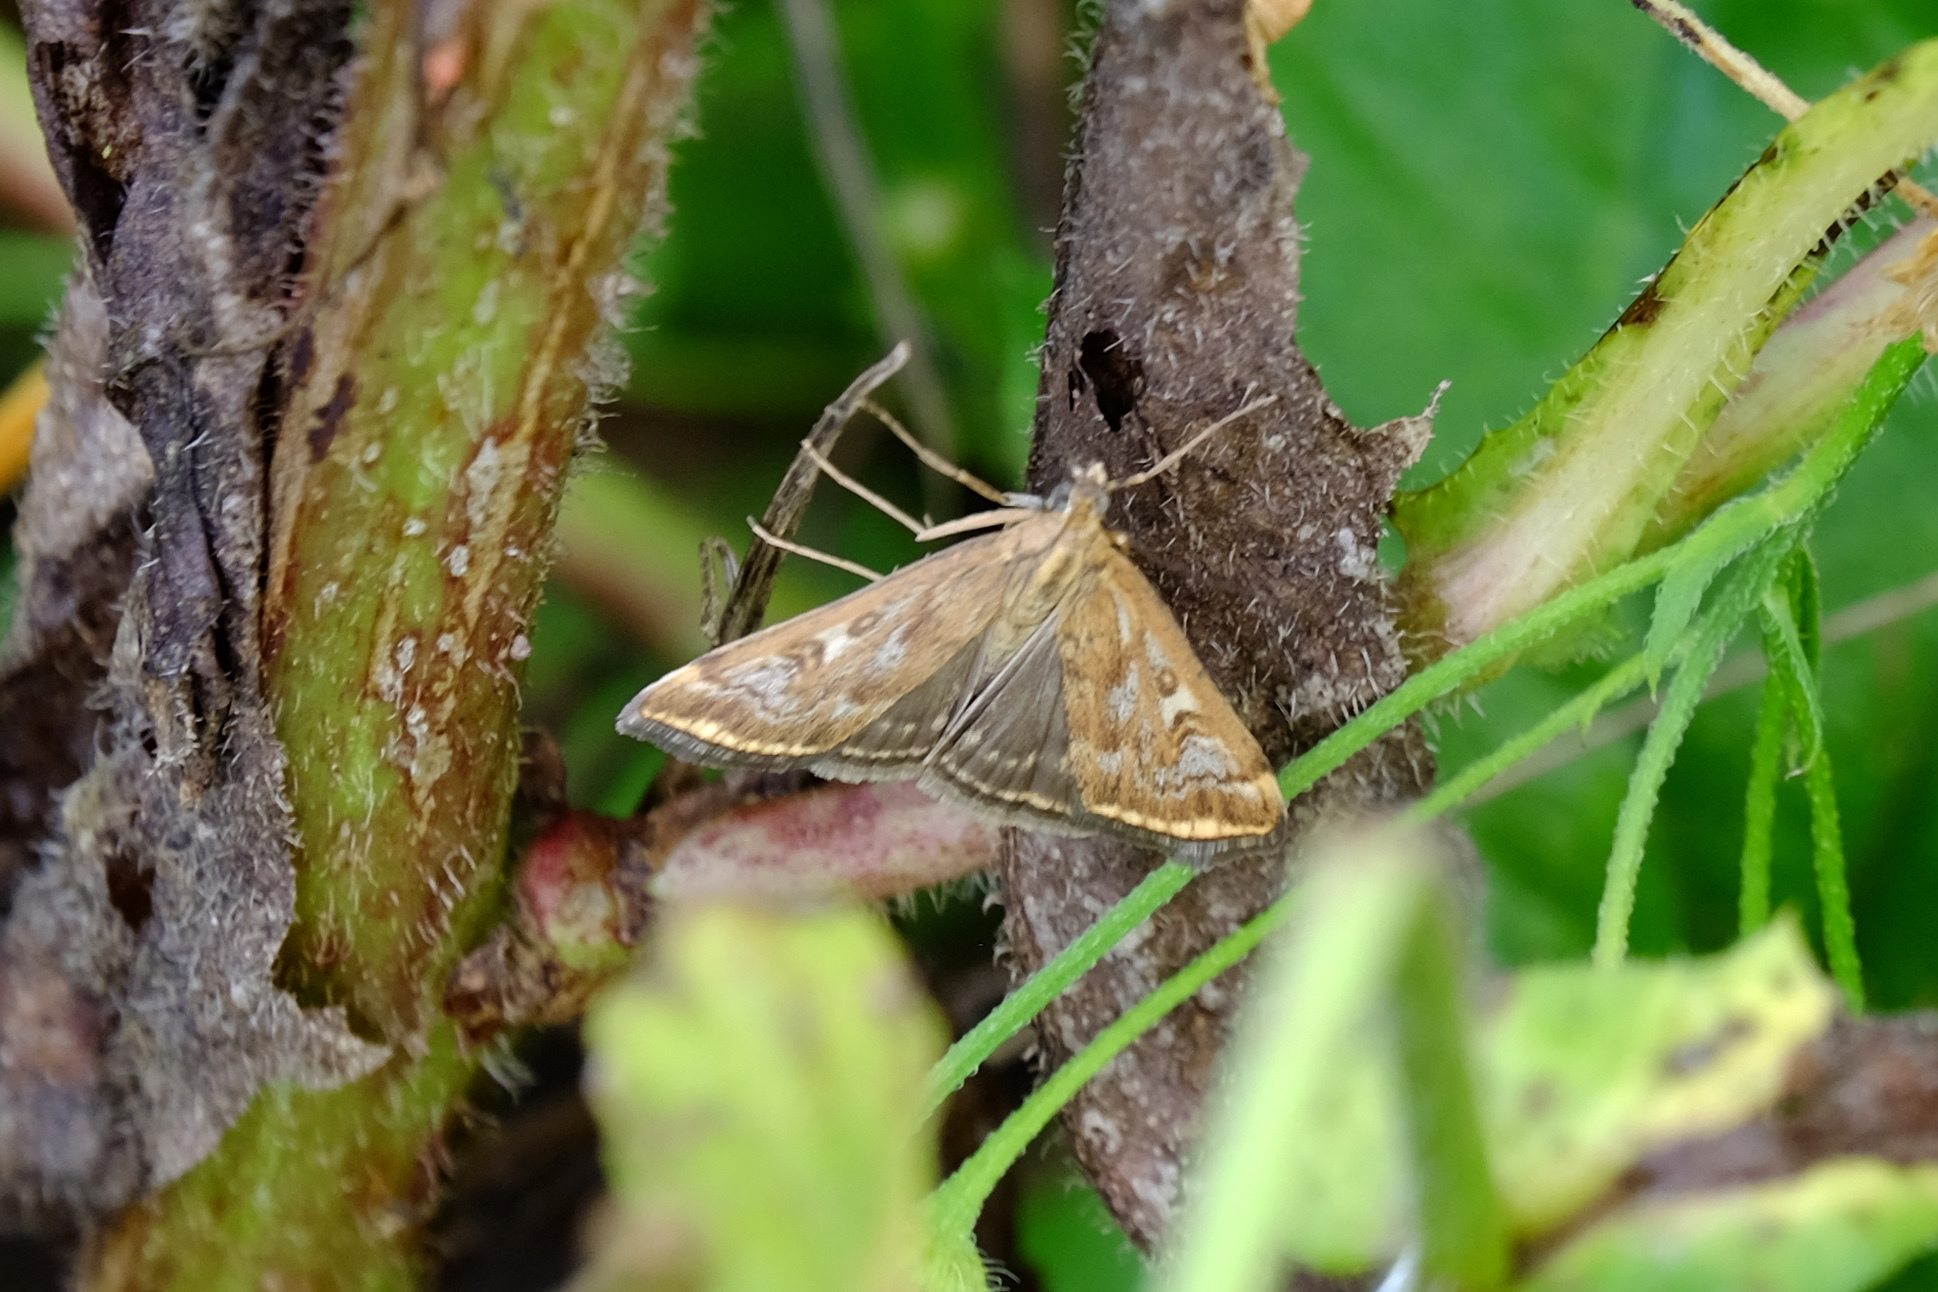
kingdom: Animalia
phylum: Arthropoda
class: Insecta
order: Lepidoptera
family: Crambidae
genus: Loxostege
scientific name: Loxostege sticticalis
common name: Crambid moth
